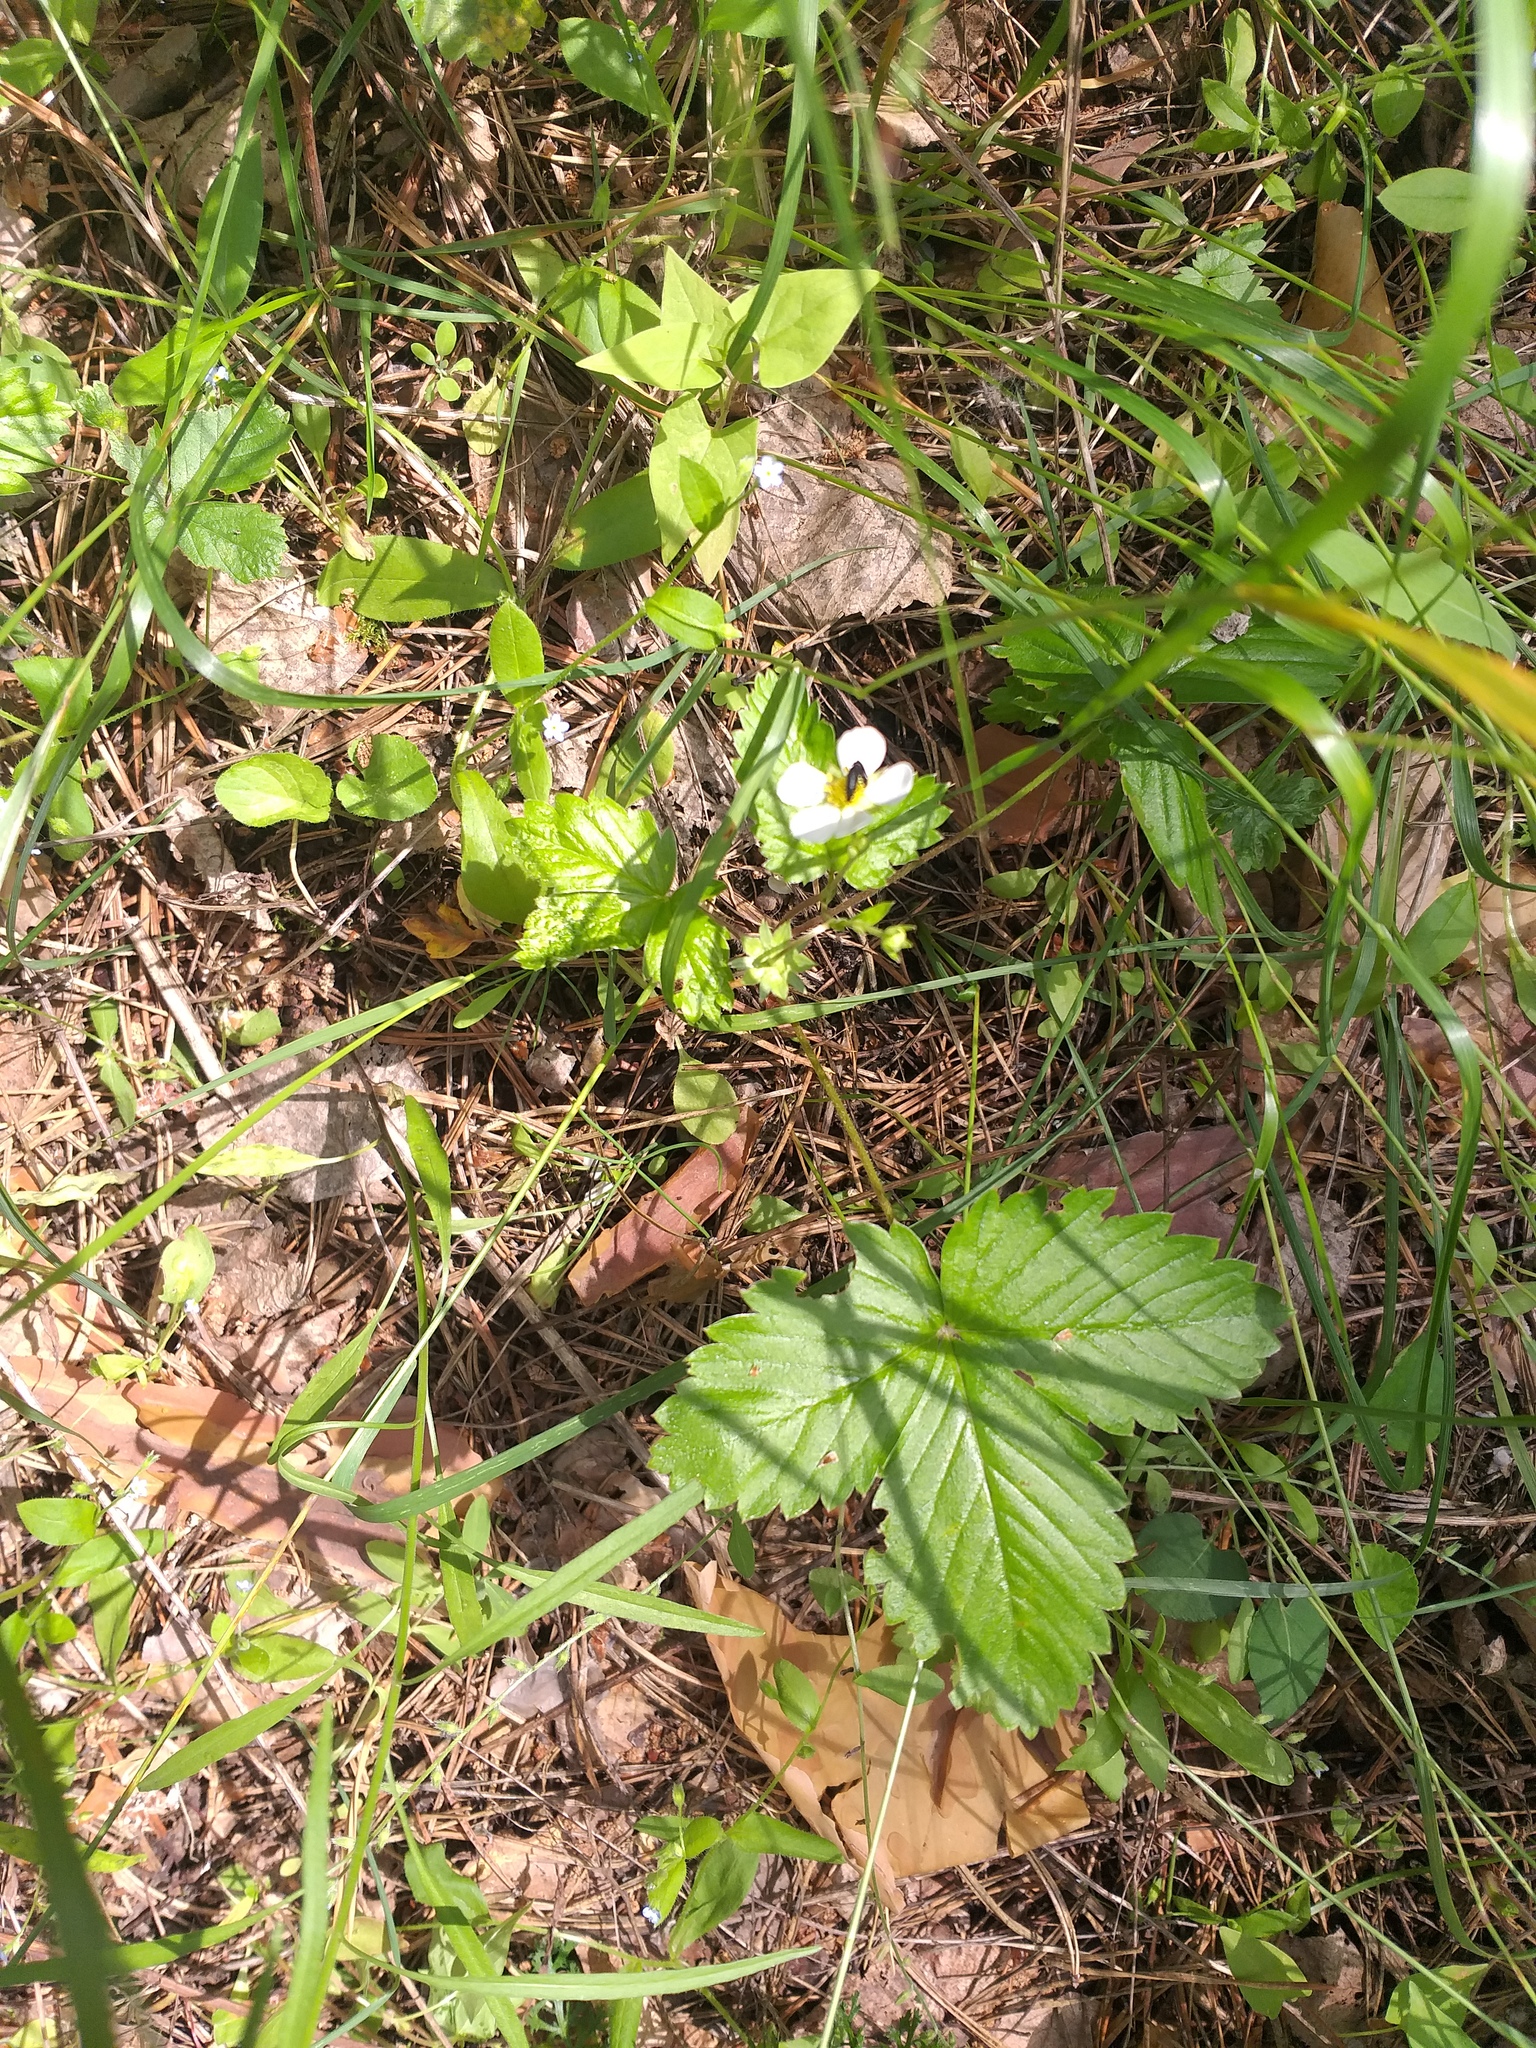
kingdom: Plantae
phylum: Tracheophyta
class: Magnoliopsida
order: Rosales
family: Rosaceae
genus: Fragaria
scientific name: Fragaria vesca
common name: Wild strawberry
